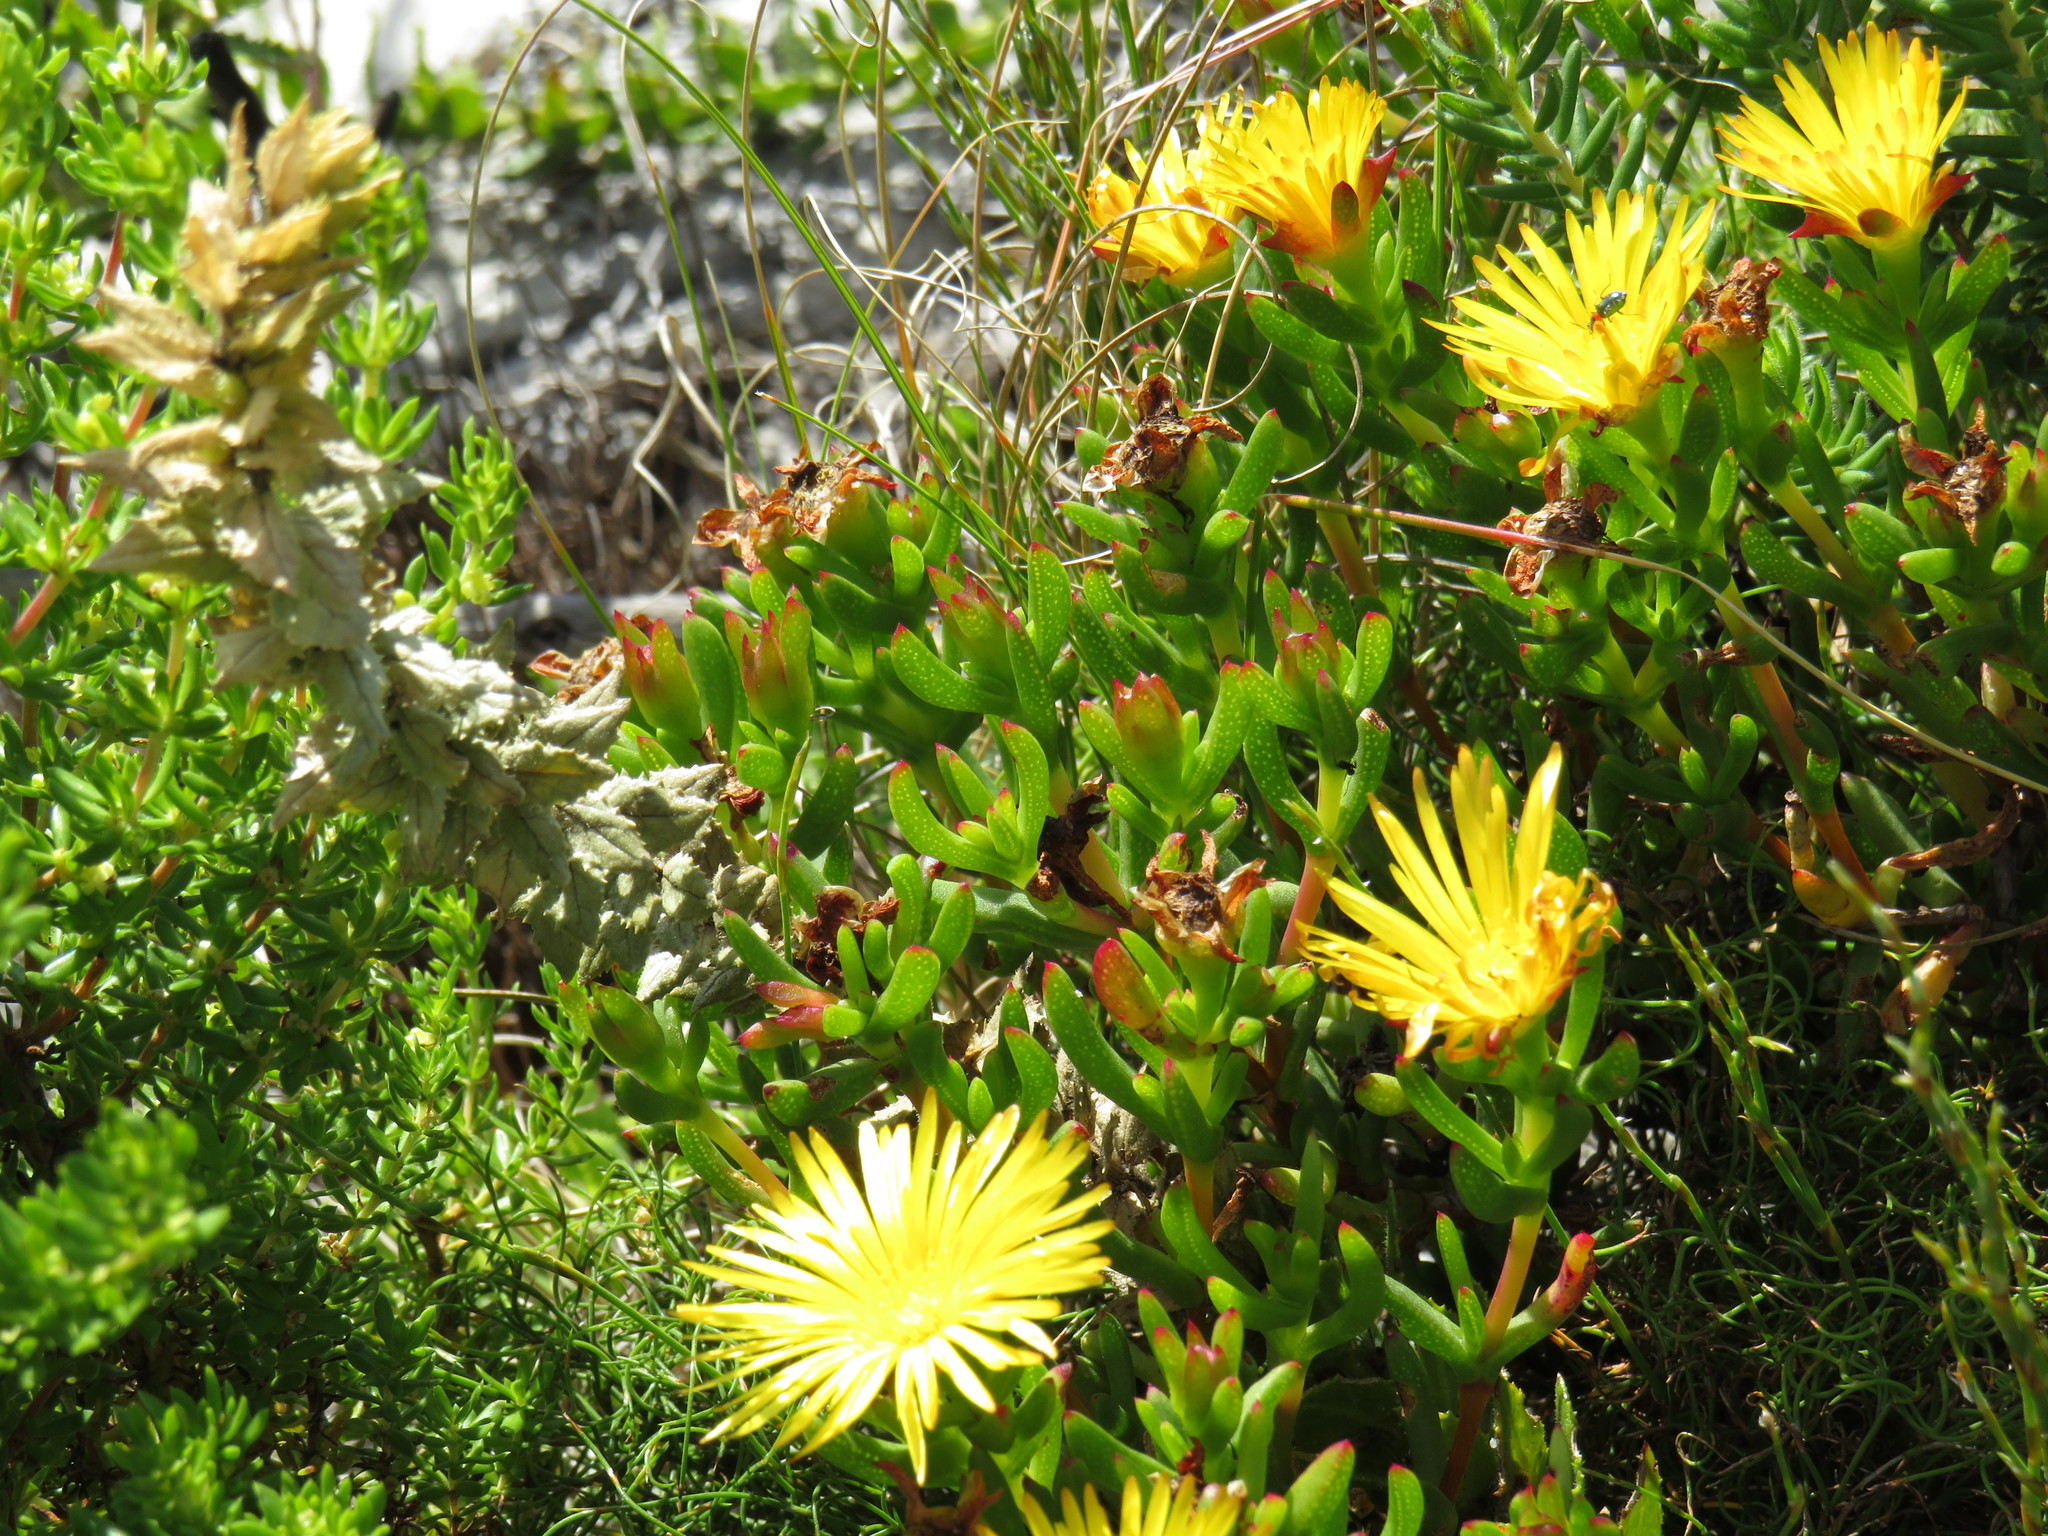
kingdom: Plantae
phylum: Tracheophyta
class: Magnoliopsida
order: Caryophyllales
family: Aizoaceae
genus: Lampranthus
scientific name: Lampranthus bicolor
